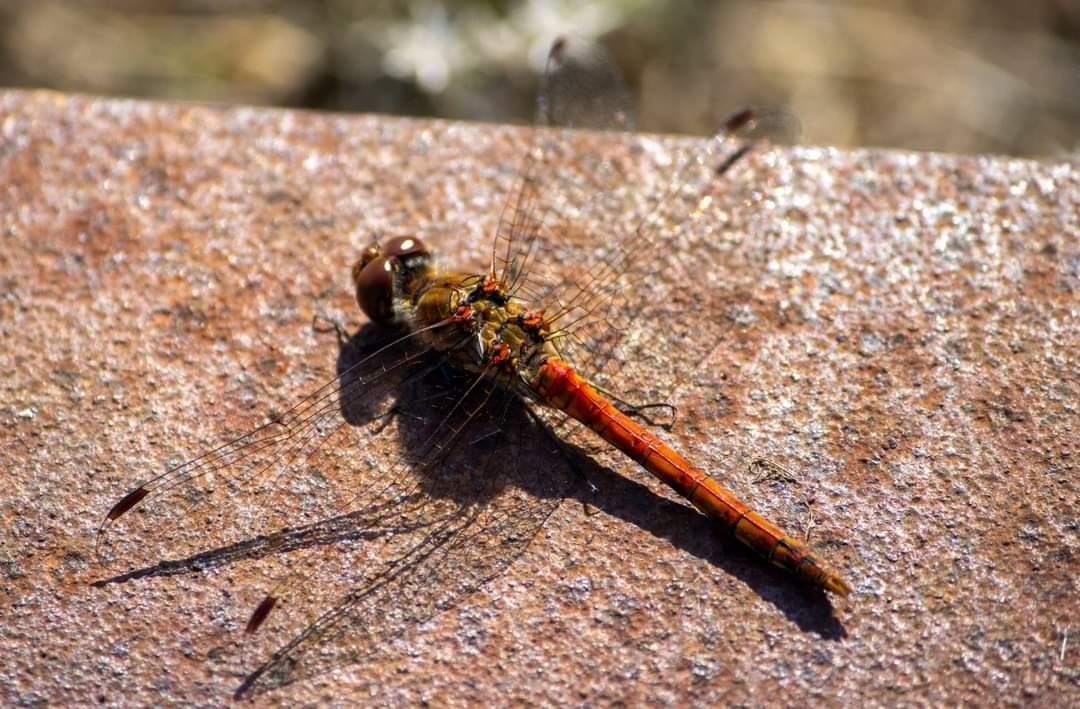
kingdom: Animalia
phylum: Arthropoda
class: Insecta
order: Odonata
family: Libellulidae
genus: Sympetrum
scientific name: Sympetrum striolatum
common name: Common darter
